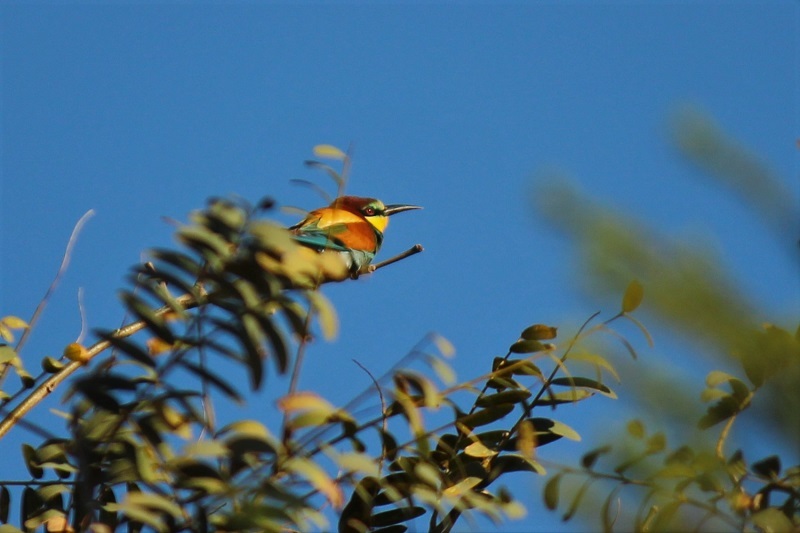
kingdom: Animalia
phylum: Chordata
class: Aves
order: Coraciiformes
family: Meropidae
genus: Merops
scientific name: Merops apiaster
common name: European bee-eater
